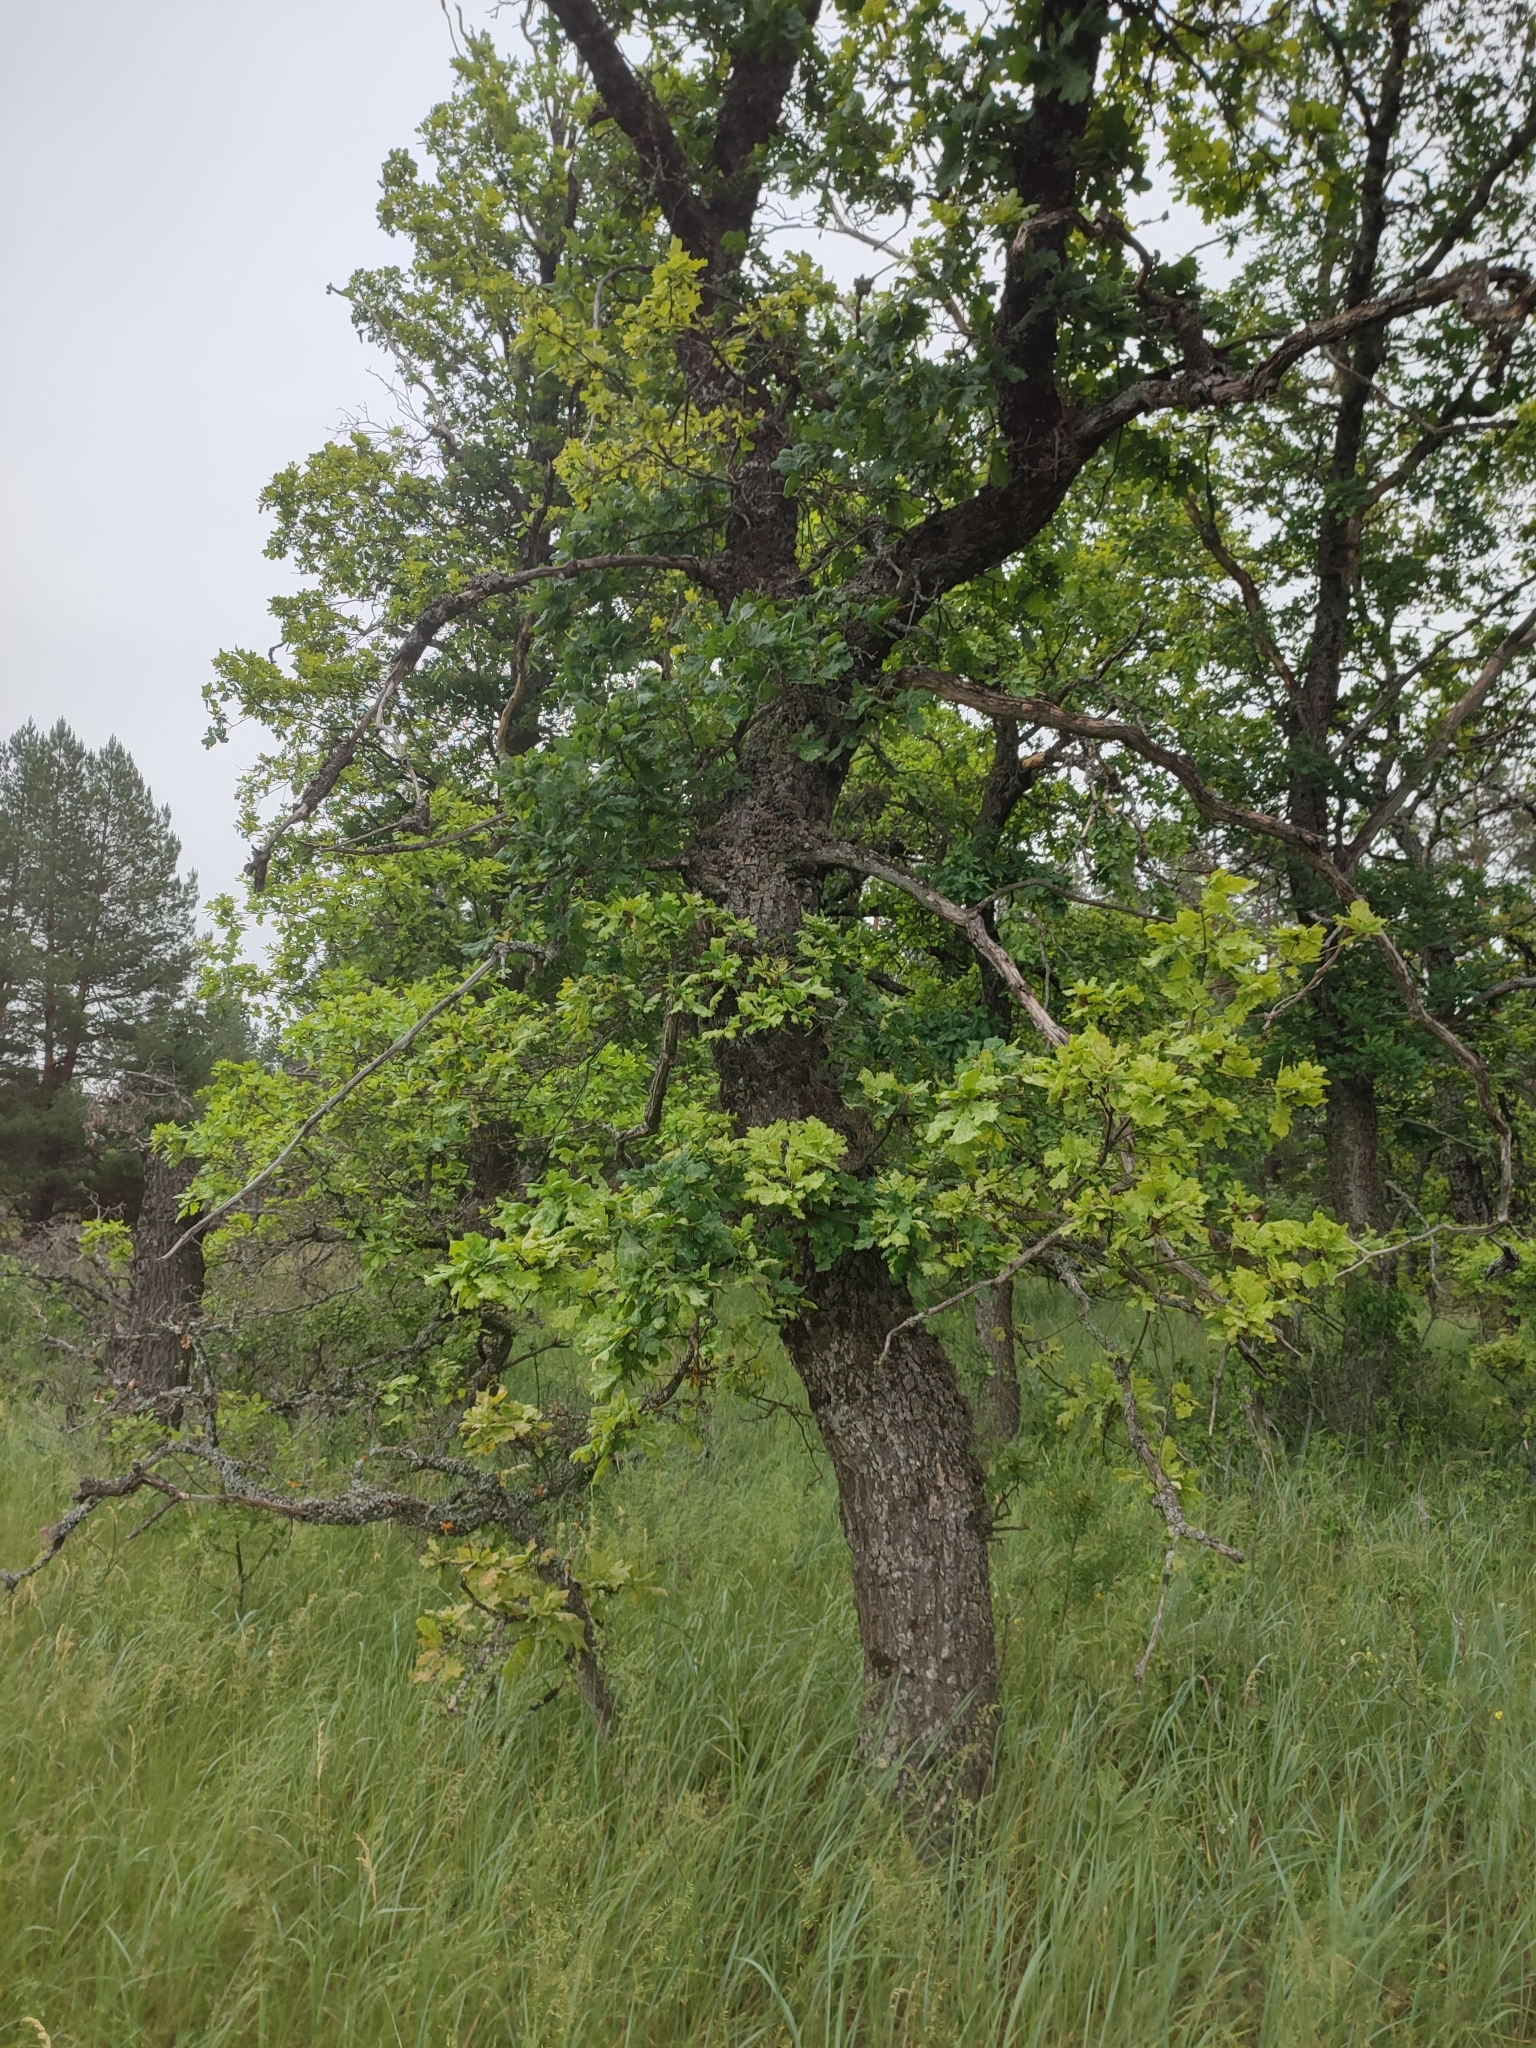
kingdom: Plantae
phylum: Tracheophyta
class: Magnoliopsida
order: Fagales
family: Fagaceae
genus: Quercus
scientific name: Quercus robur
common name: Pedunculate oak
